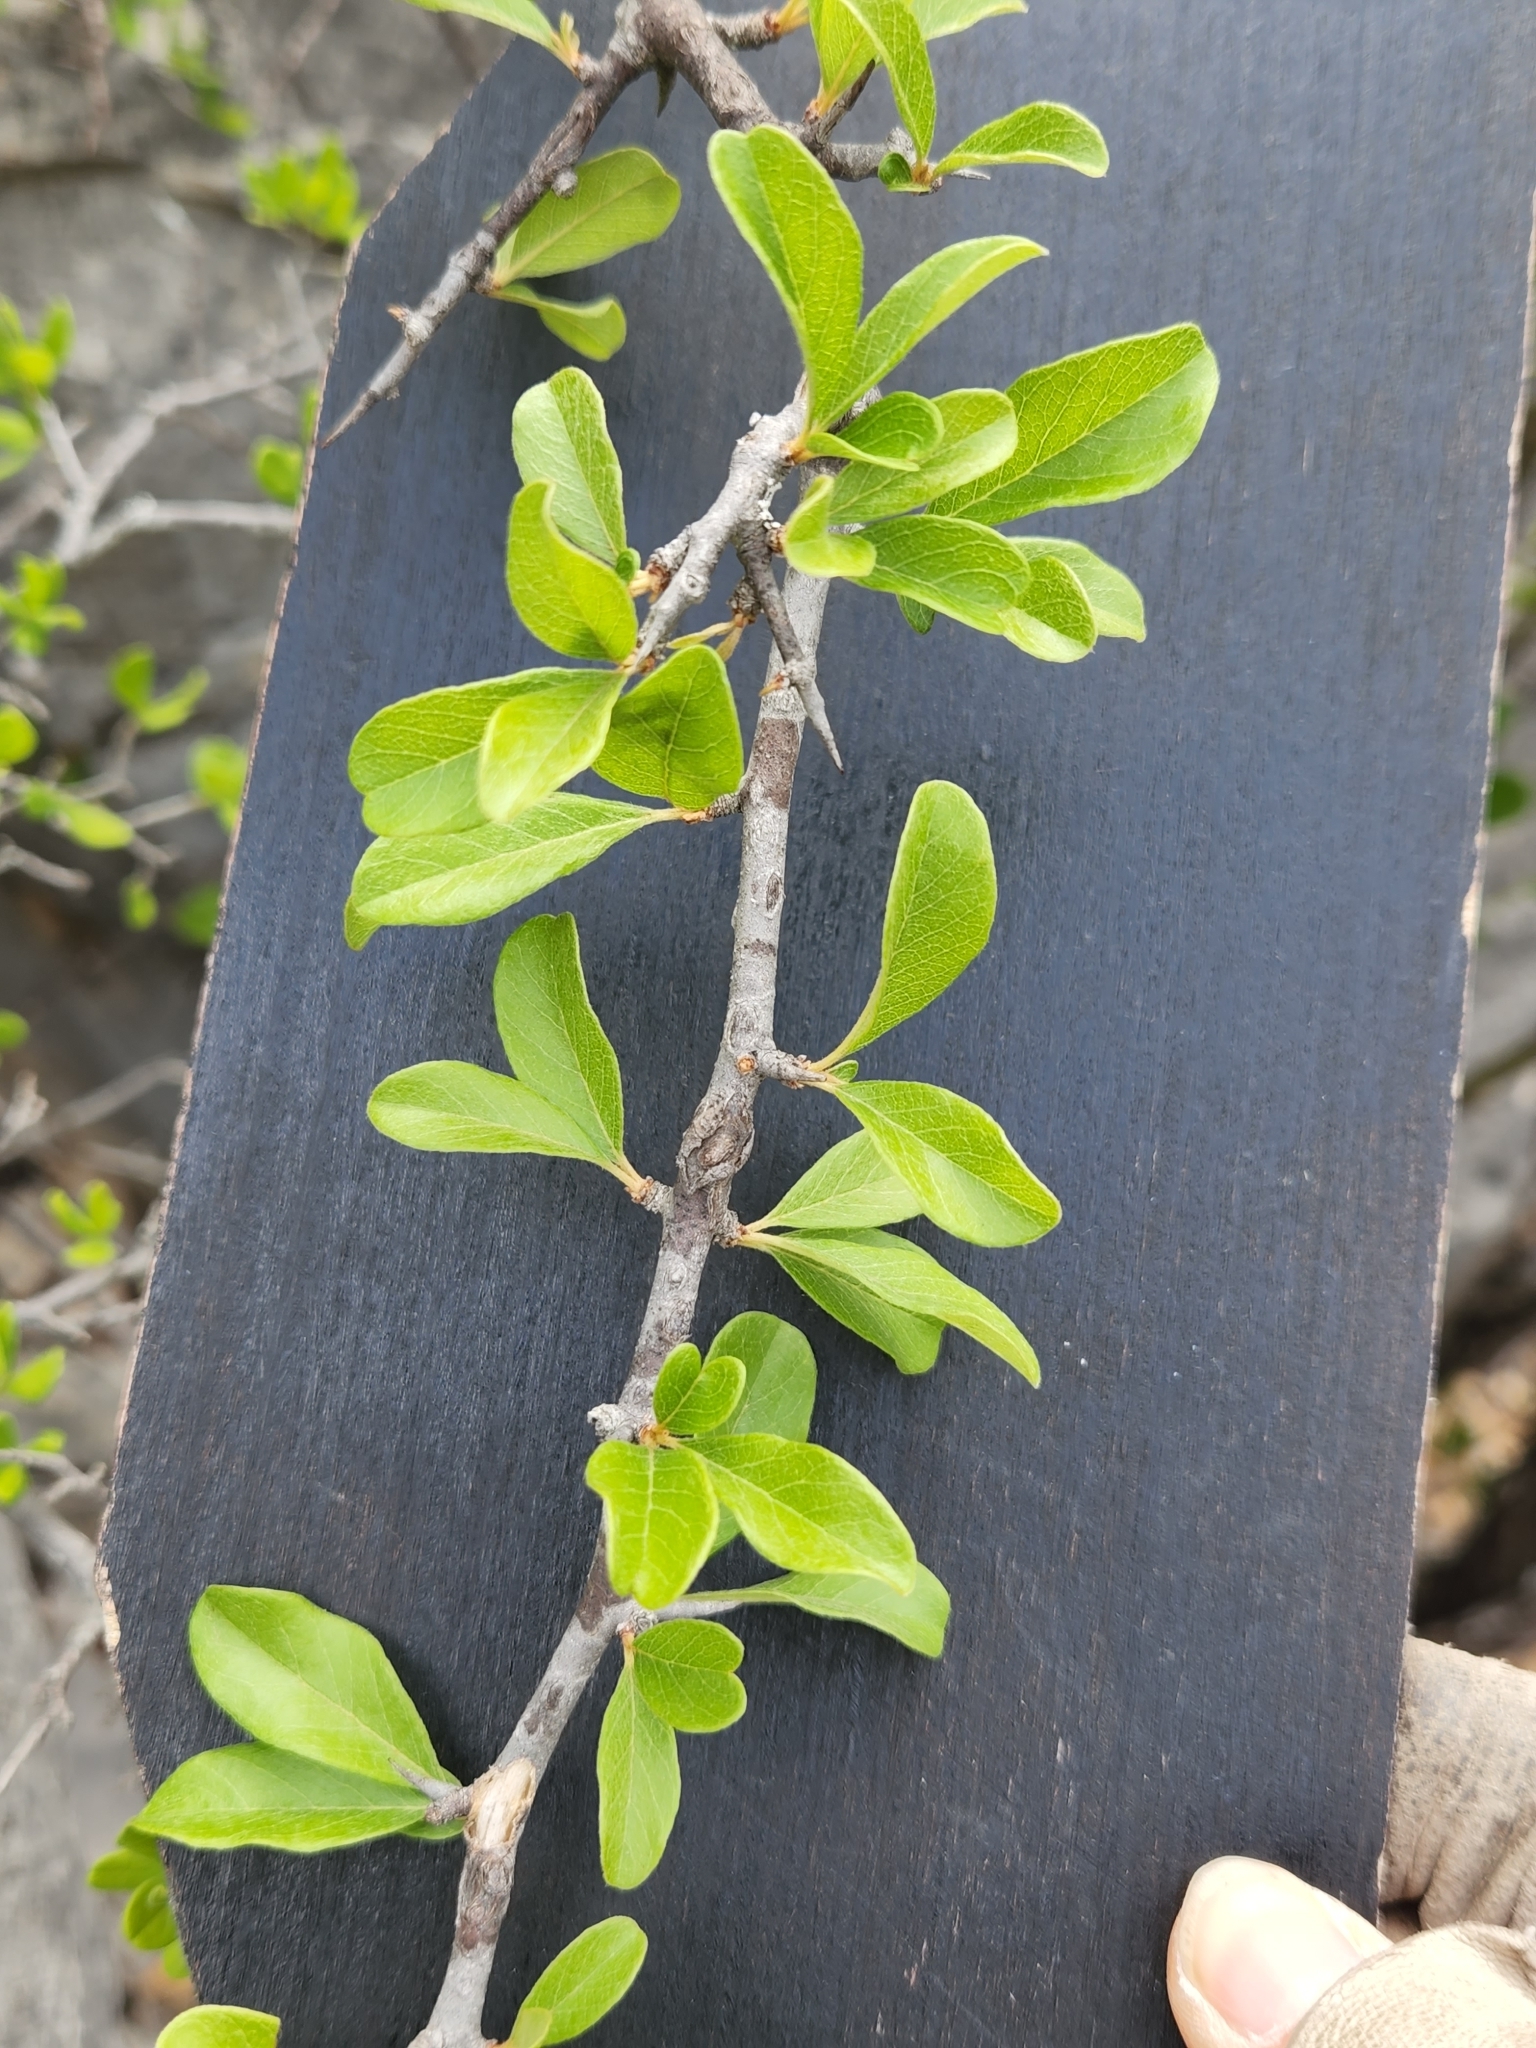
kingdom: Plantae
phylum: Tracheophyta
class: Magnoliopsida
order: Ericales
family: Sapotaceae
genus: Sideroxylon
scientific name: Sideroxylon lanuginosum
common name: Chittamwood
